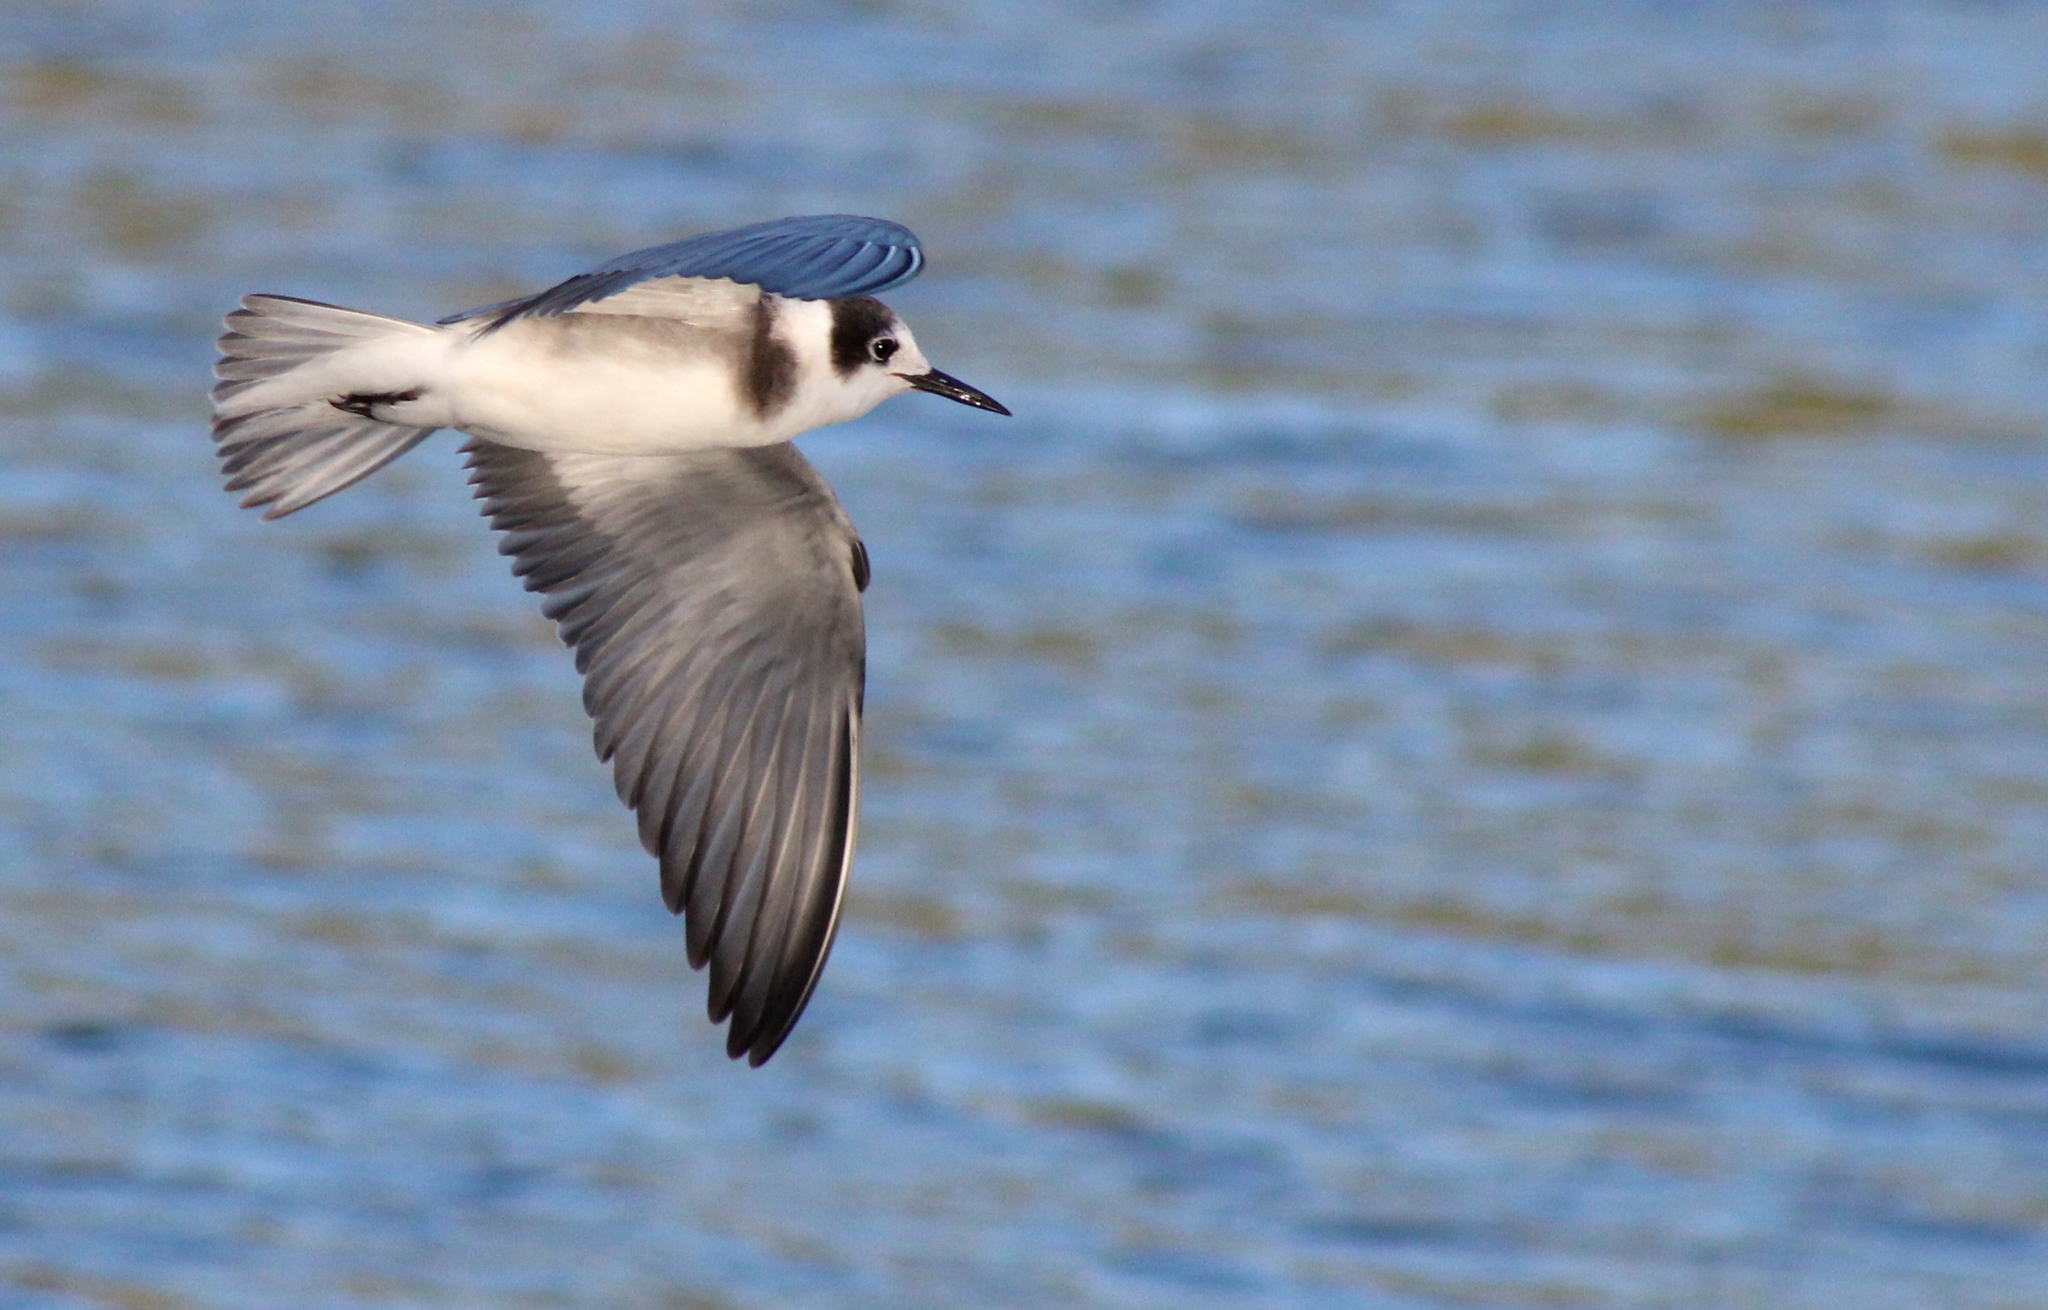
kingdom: Animalia
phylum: Chordata
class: Aves
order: Charadriiformes
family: Laridae
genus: Chlidonias
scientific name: Chlidonias niger
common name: Black tern
